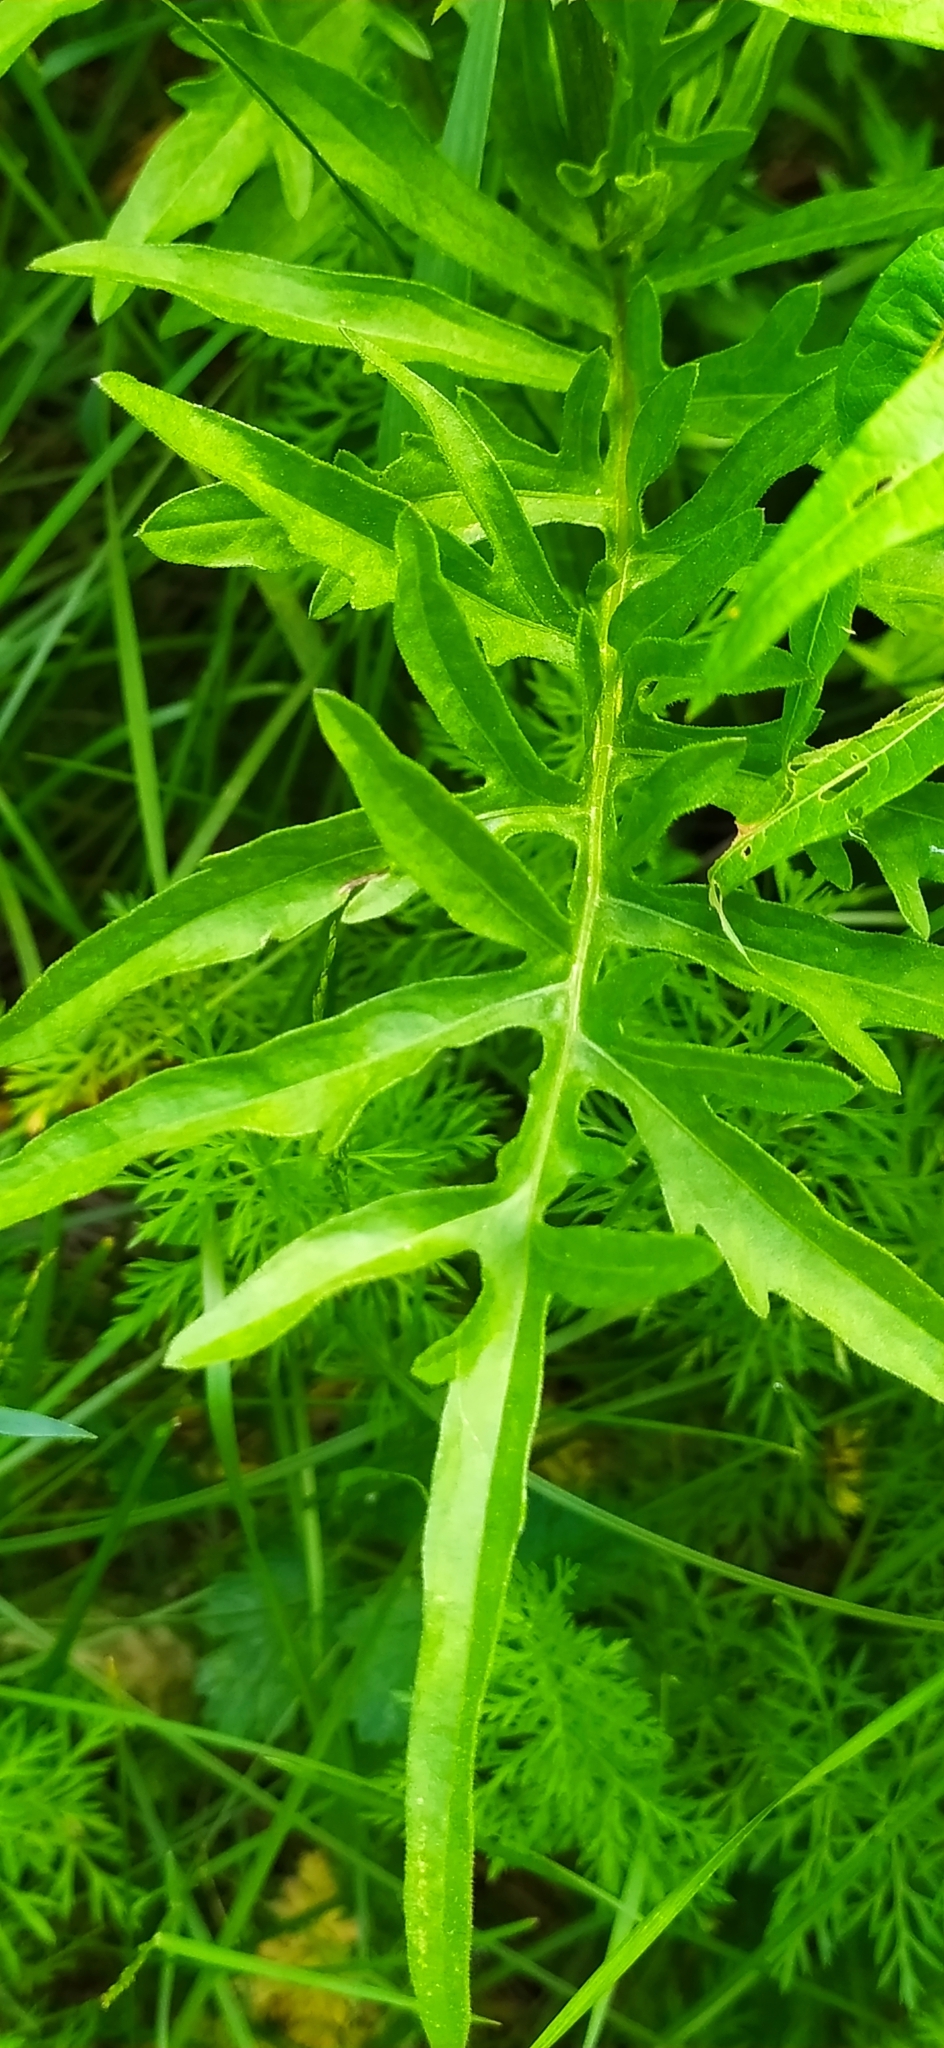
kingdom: Plantae
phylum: Tracheophyta
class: Magnoliopsida
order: Asterales
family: Asteraceae
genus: Centaurea
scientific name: Centaurea scabiosa
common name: Greater knapweed
